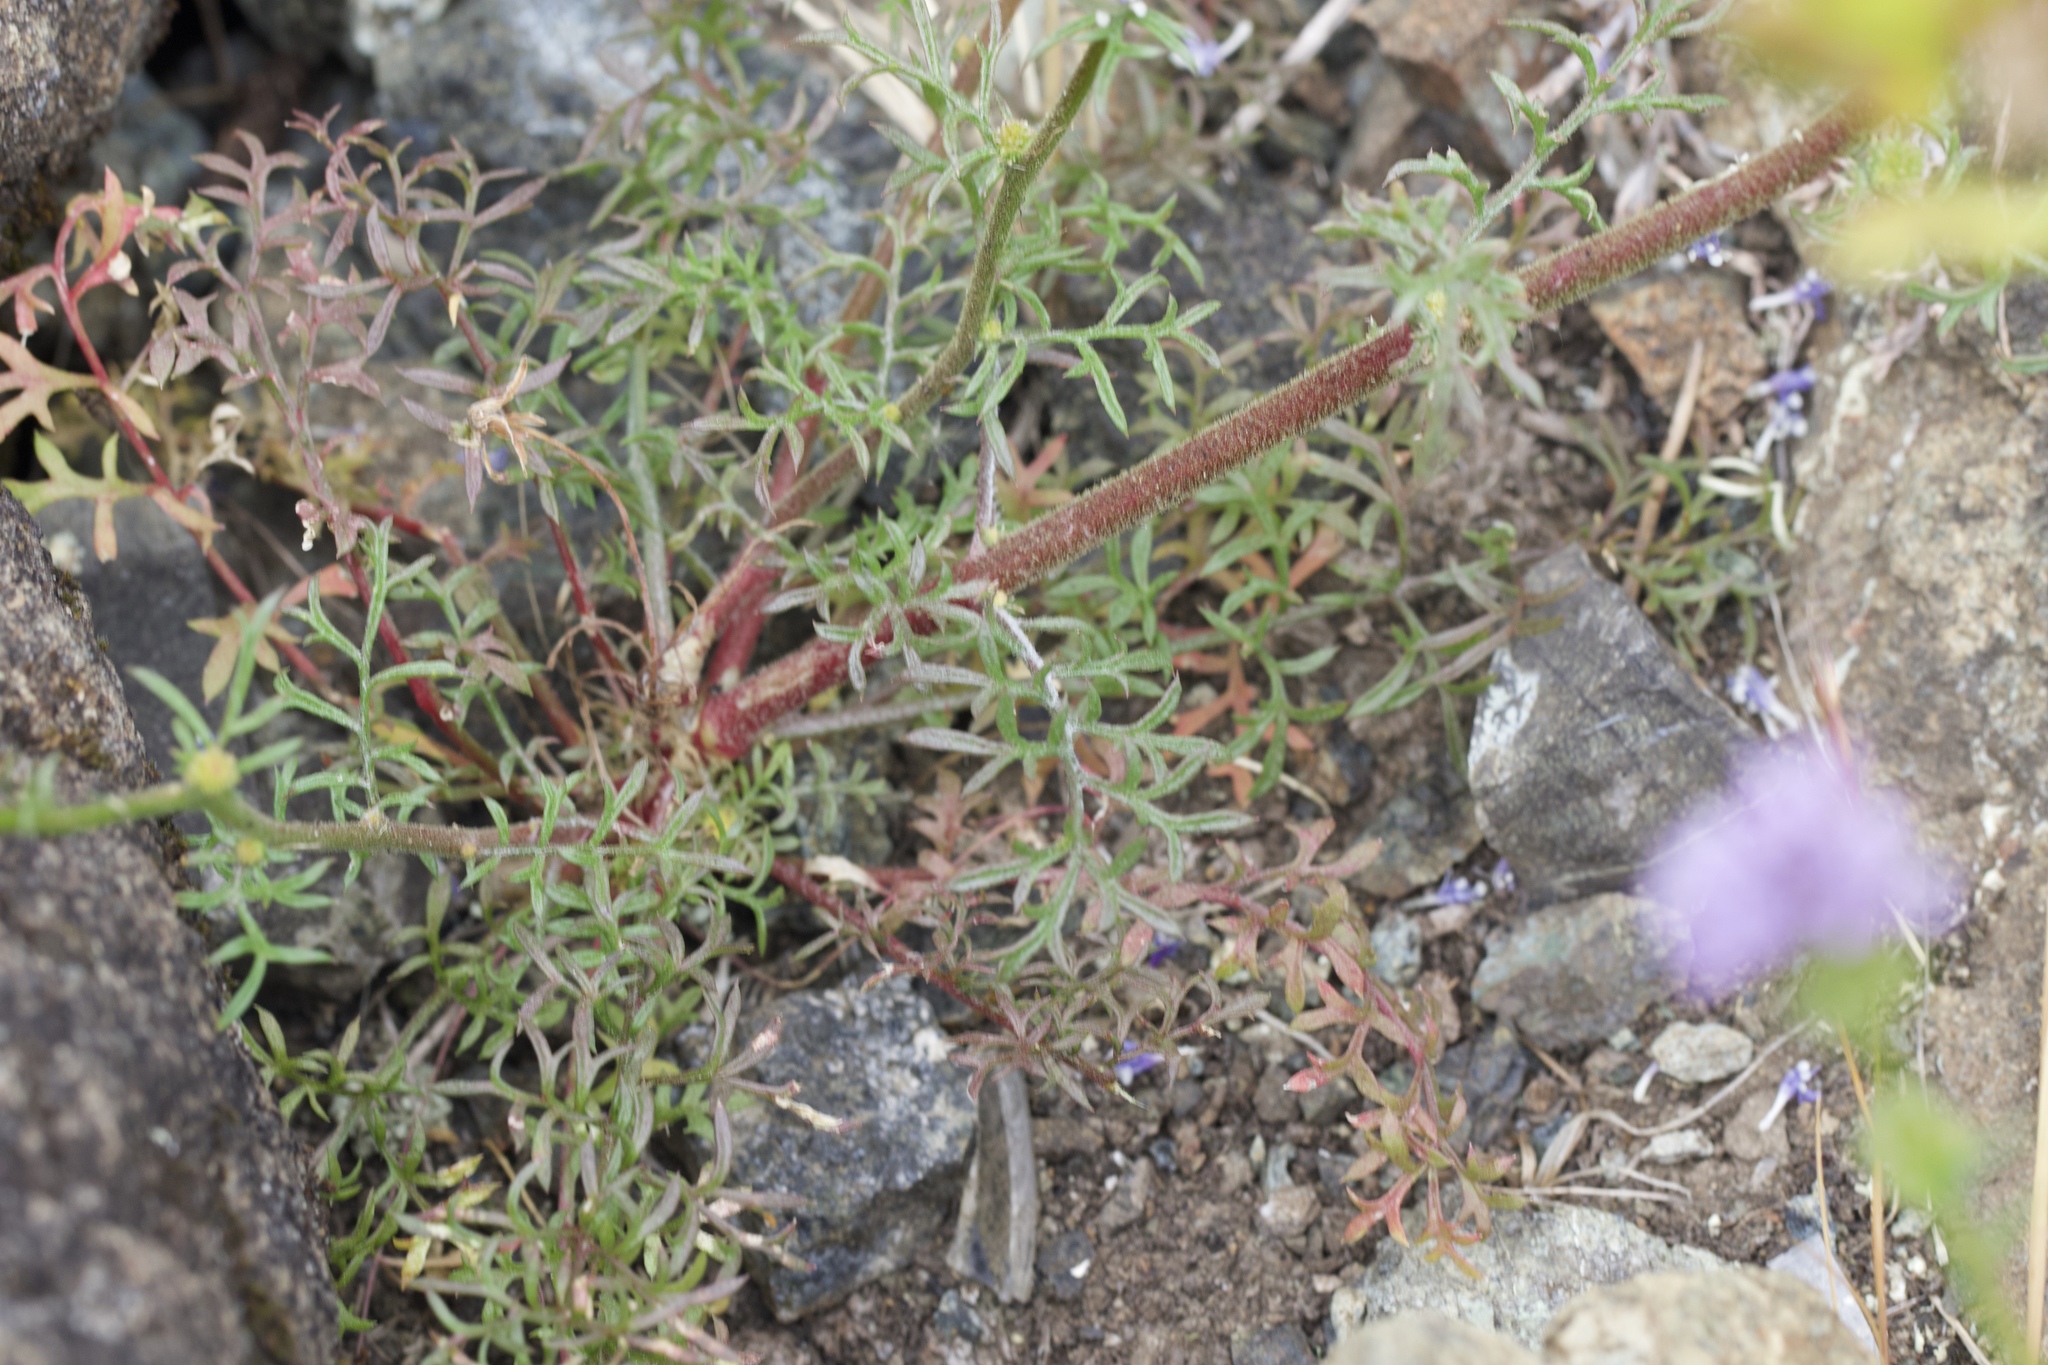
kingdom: Plantae
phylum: Tracheophyta
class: Magnoliopsida
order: Ericales
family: Polemoniaceae
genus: Gilia
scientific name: Gilia capitata
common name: Bluehead gilia
